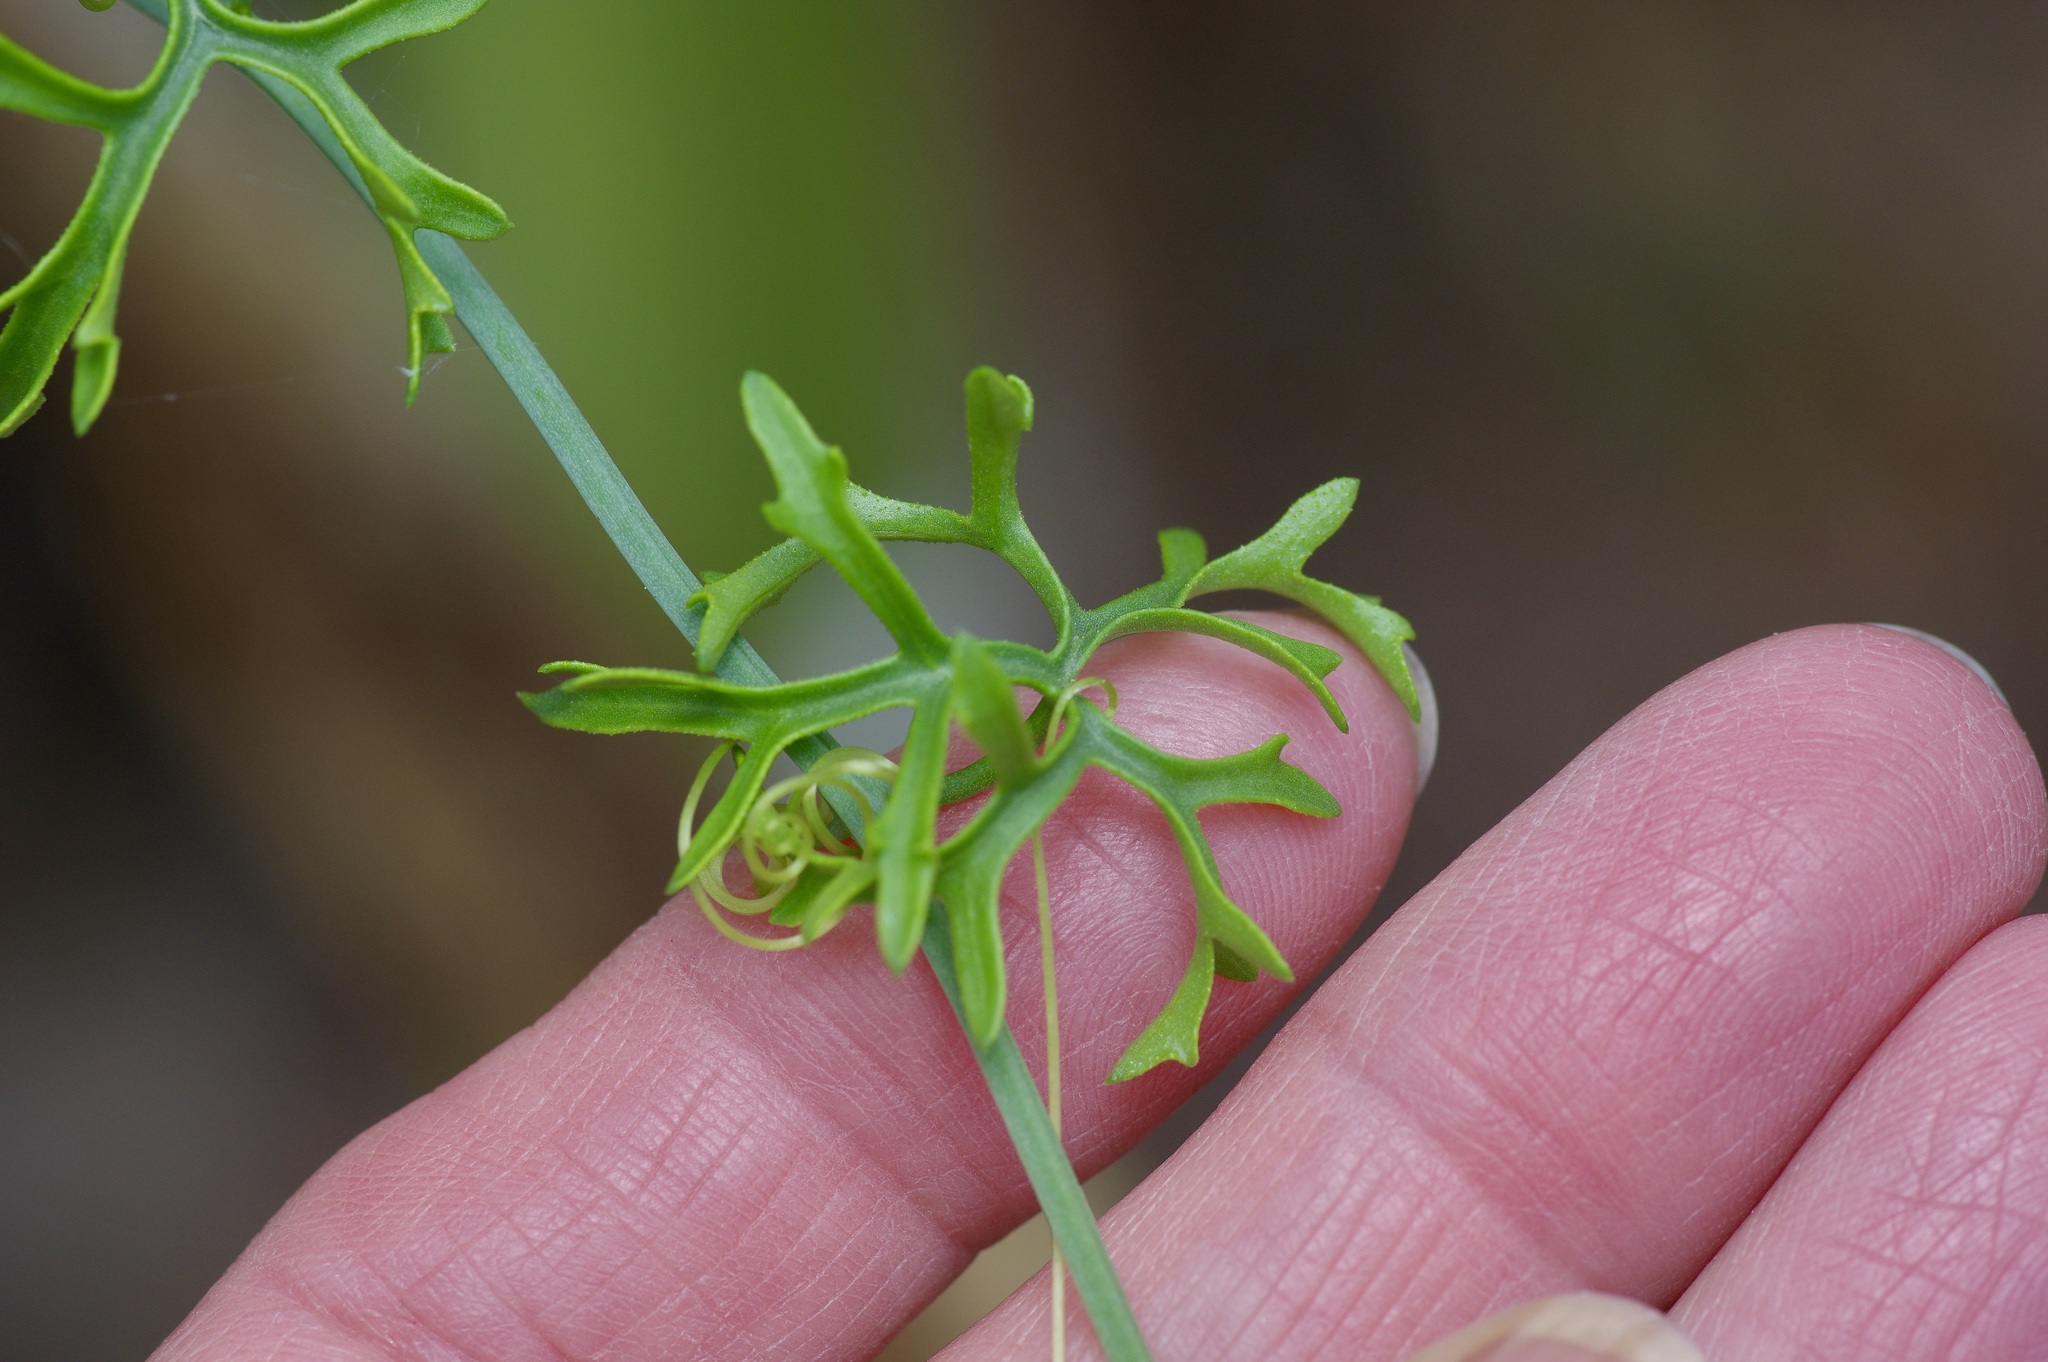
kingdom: Plantae
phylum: Tracheophyta
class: Magnoliopsida
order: Cucurbitales
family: Cucurbitaceae
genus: Ibervillea
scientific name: Ibervillea tenuisecta
